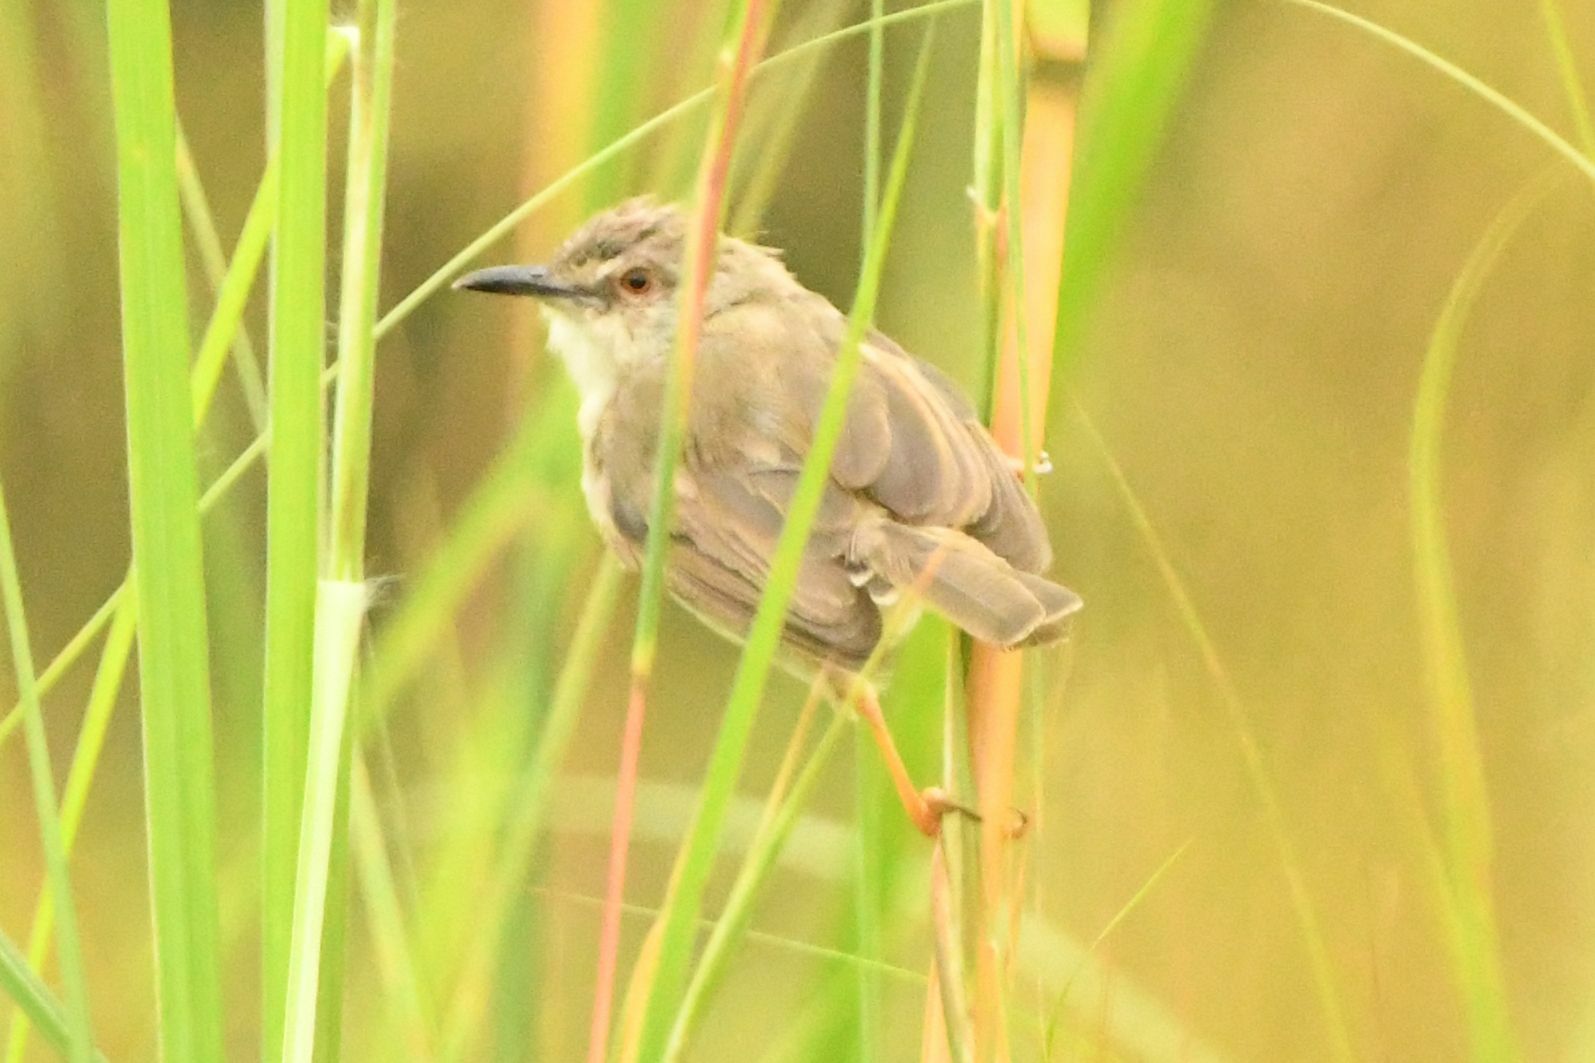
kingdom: Animalia
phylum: Chordata
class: Aves
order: Passeriformes
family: Cisticolidae
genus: Prinia
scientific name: Prinia subflava
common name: Tawny-flanked prinia
